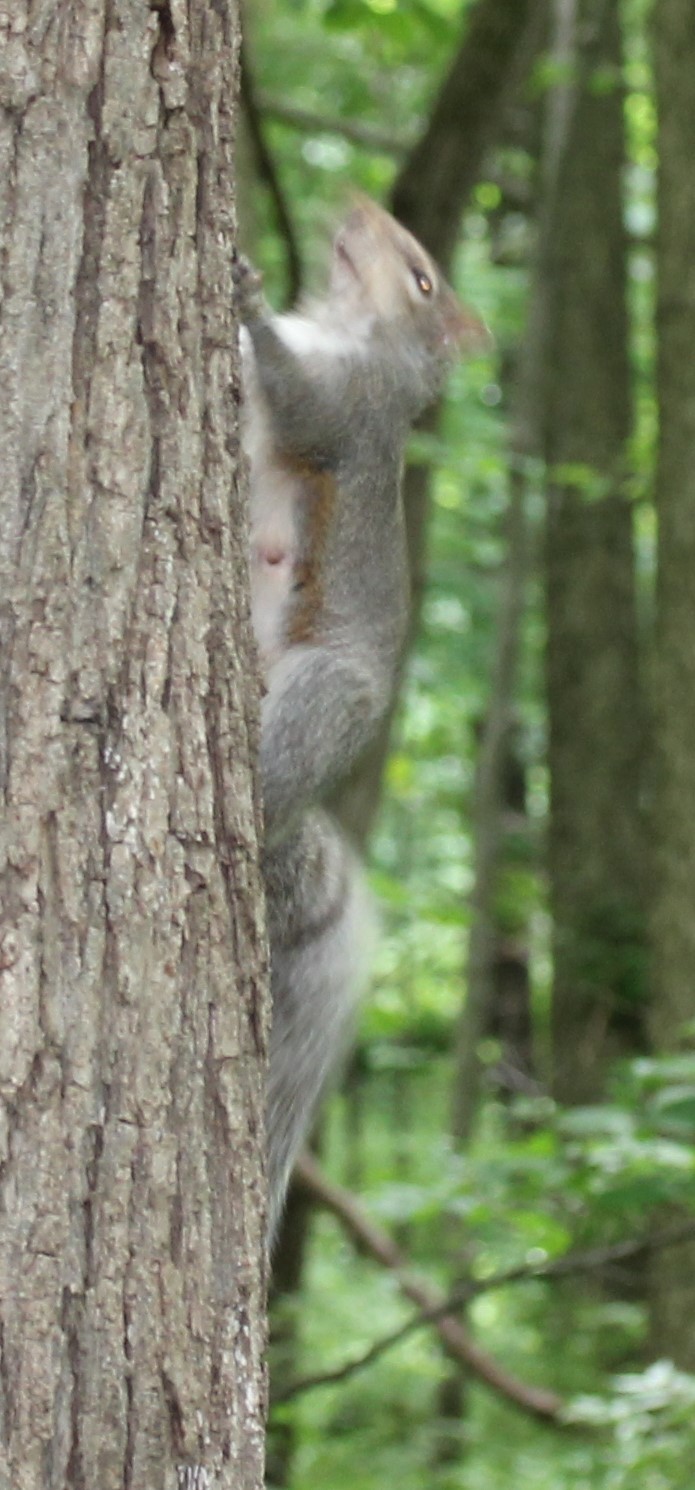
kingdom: Animalia
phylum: Chordata
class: Mammalia
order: Rodentia
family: Sciuridae
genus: Sciurus
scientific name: Sciurus carolinensis
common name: Eastern gray squirrel
